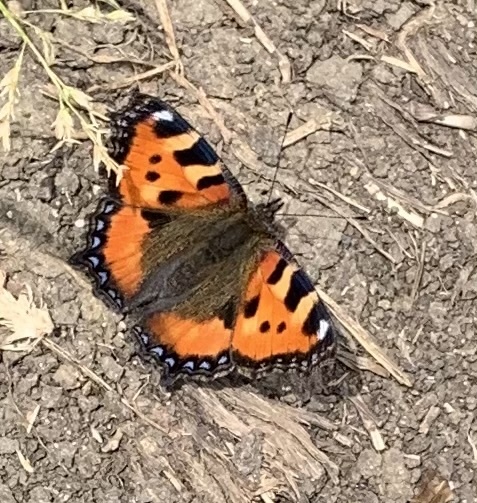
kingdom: Animalia
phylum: Arthropoda
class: Insecta
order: Lepidoptera
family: Nymphalidae
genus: Aglais
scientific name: Aglais urticae
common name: Small tortoiseshell
